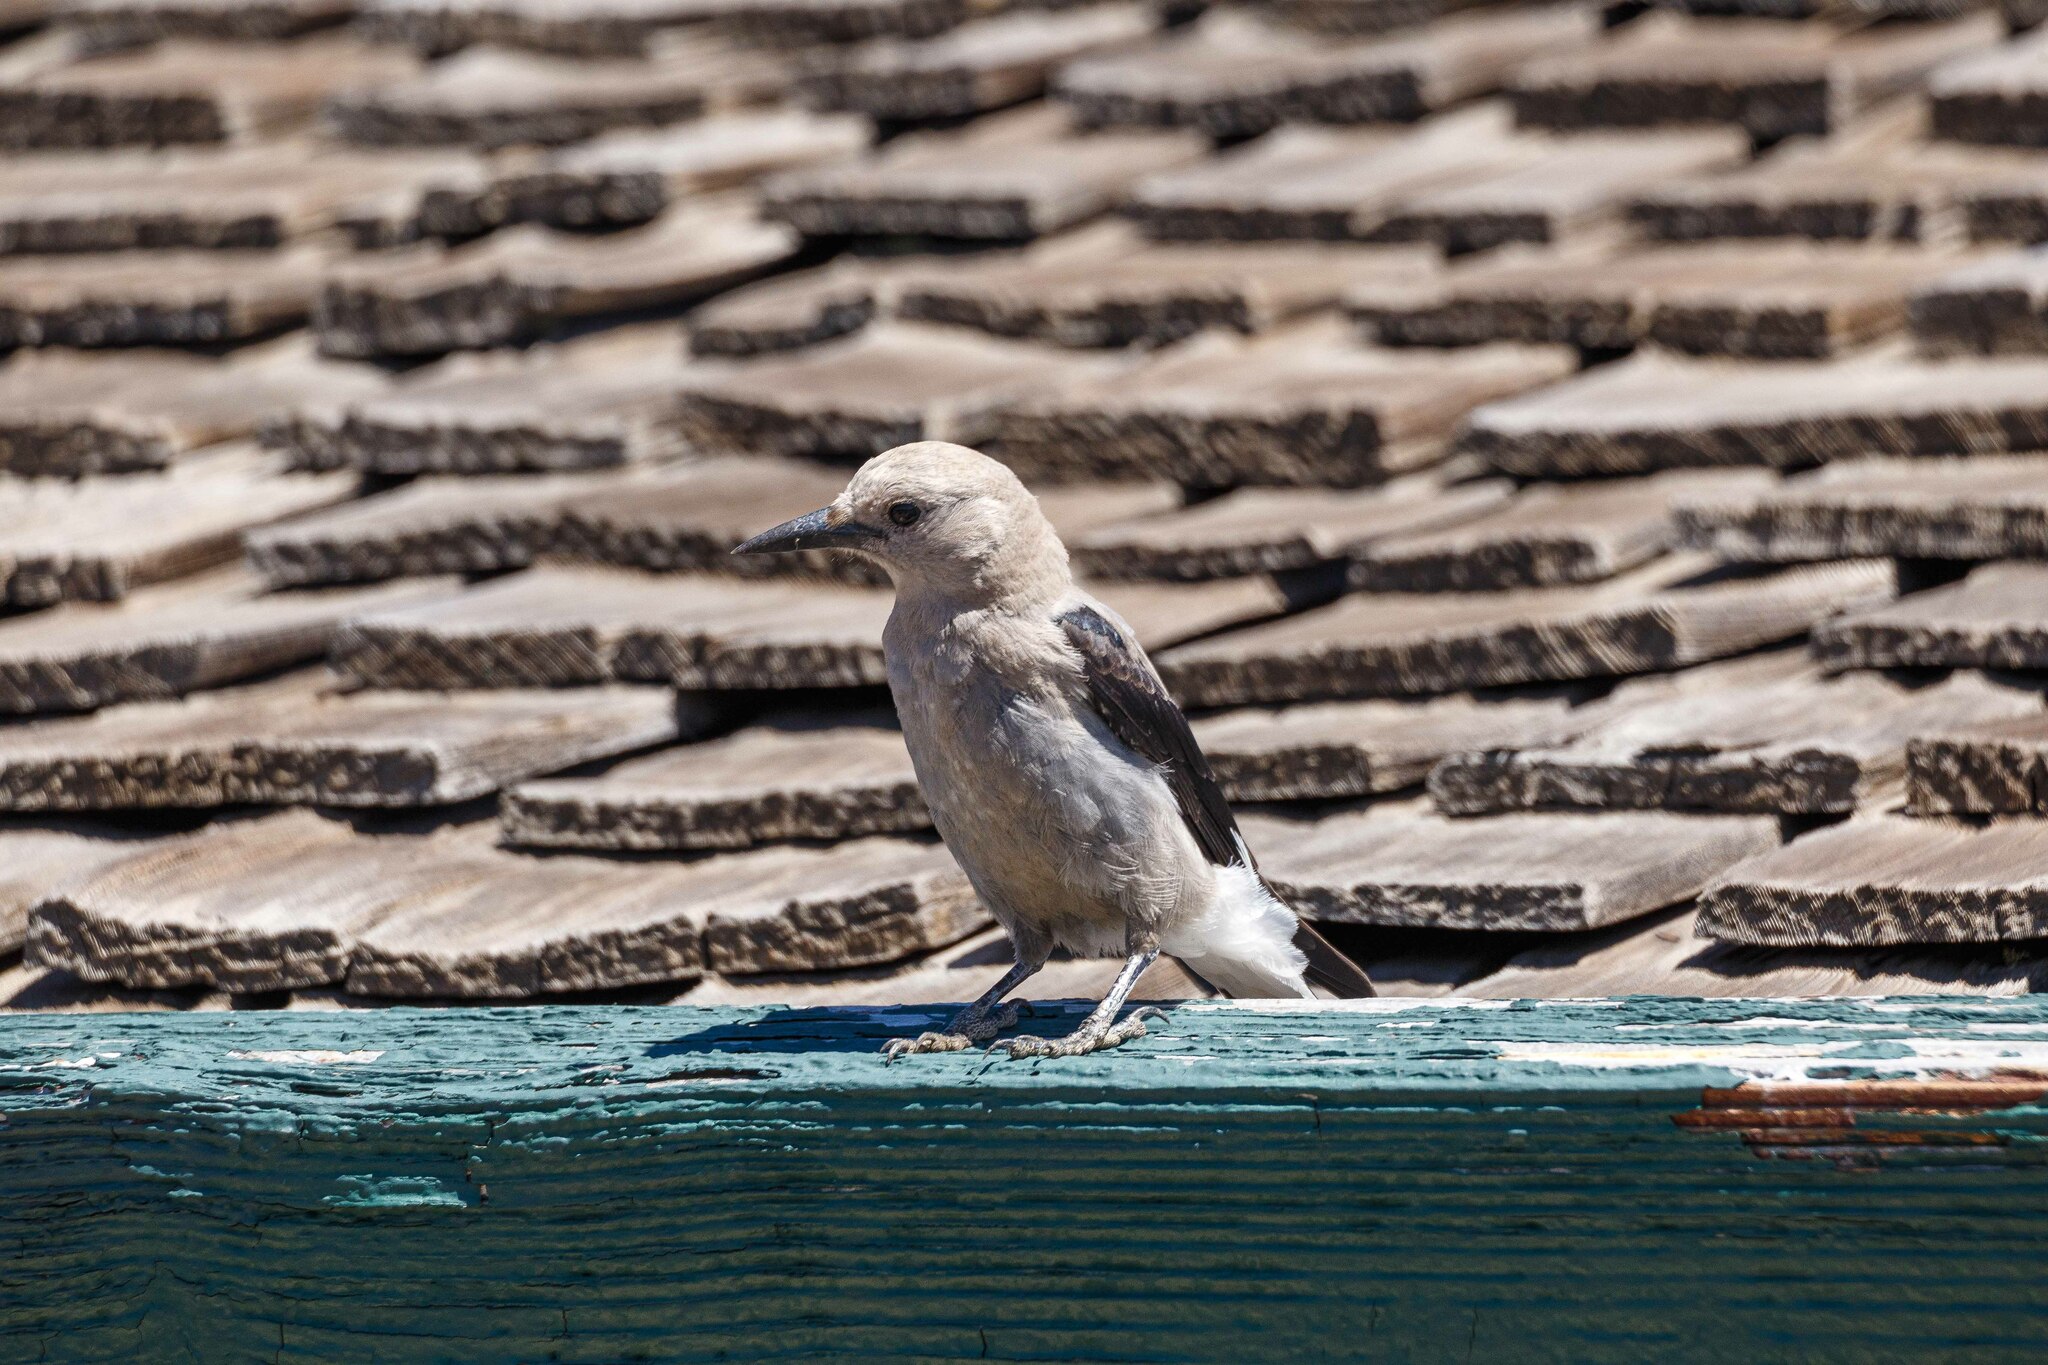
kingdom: Animalia
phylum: Chordata
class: Aves
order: Passeriformes
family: Corvidae
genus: Nucifraga
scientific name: Nucifraga columbiana
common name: Clark's nutcracker
